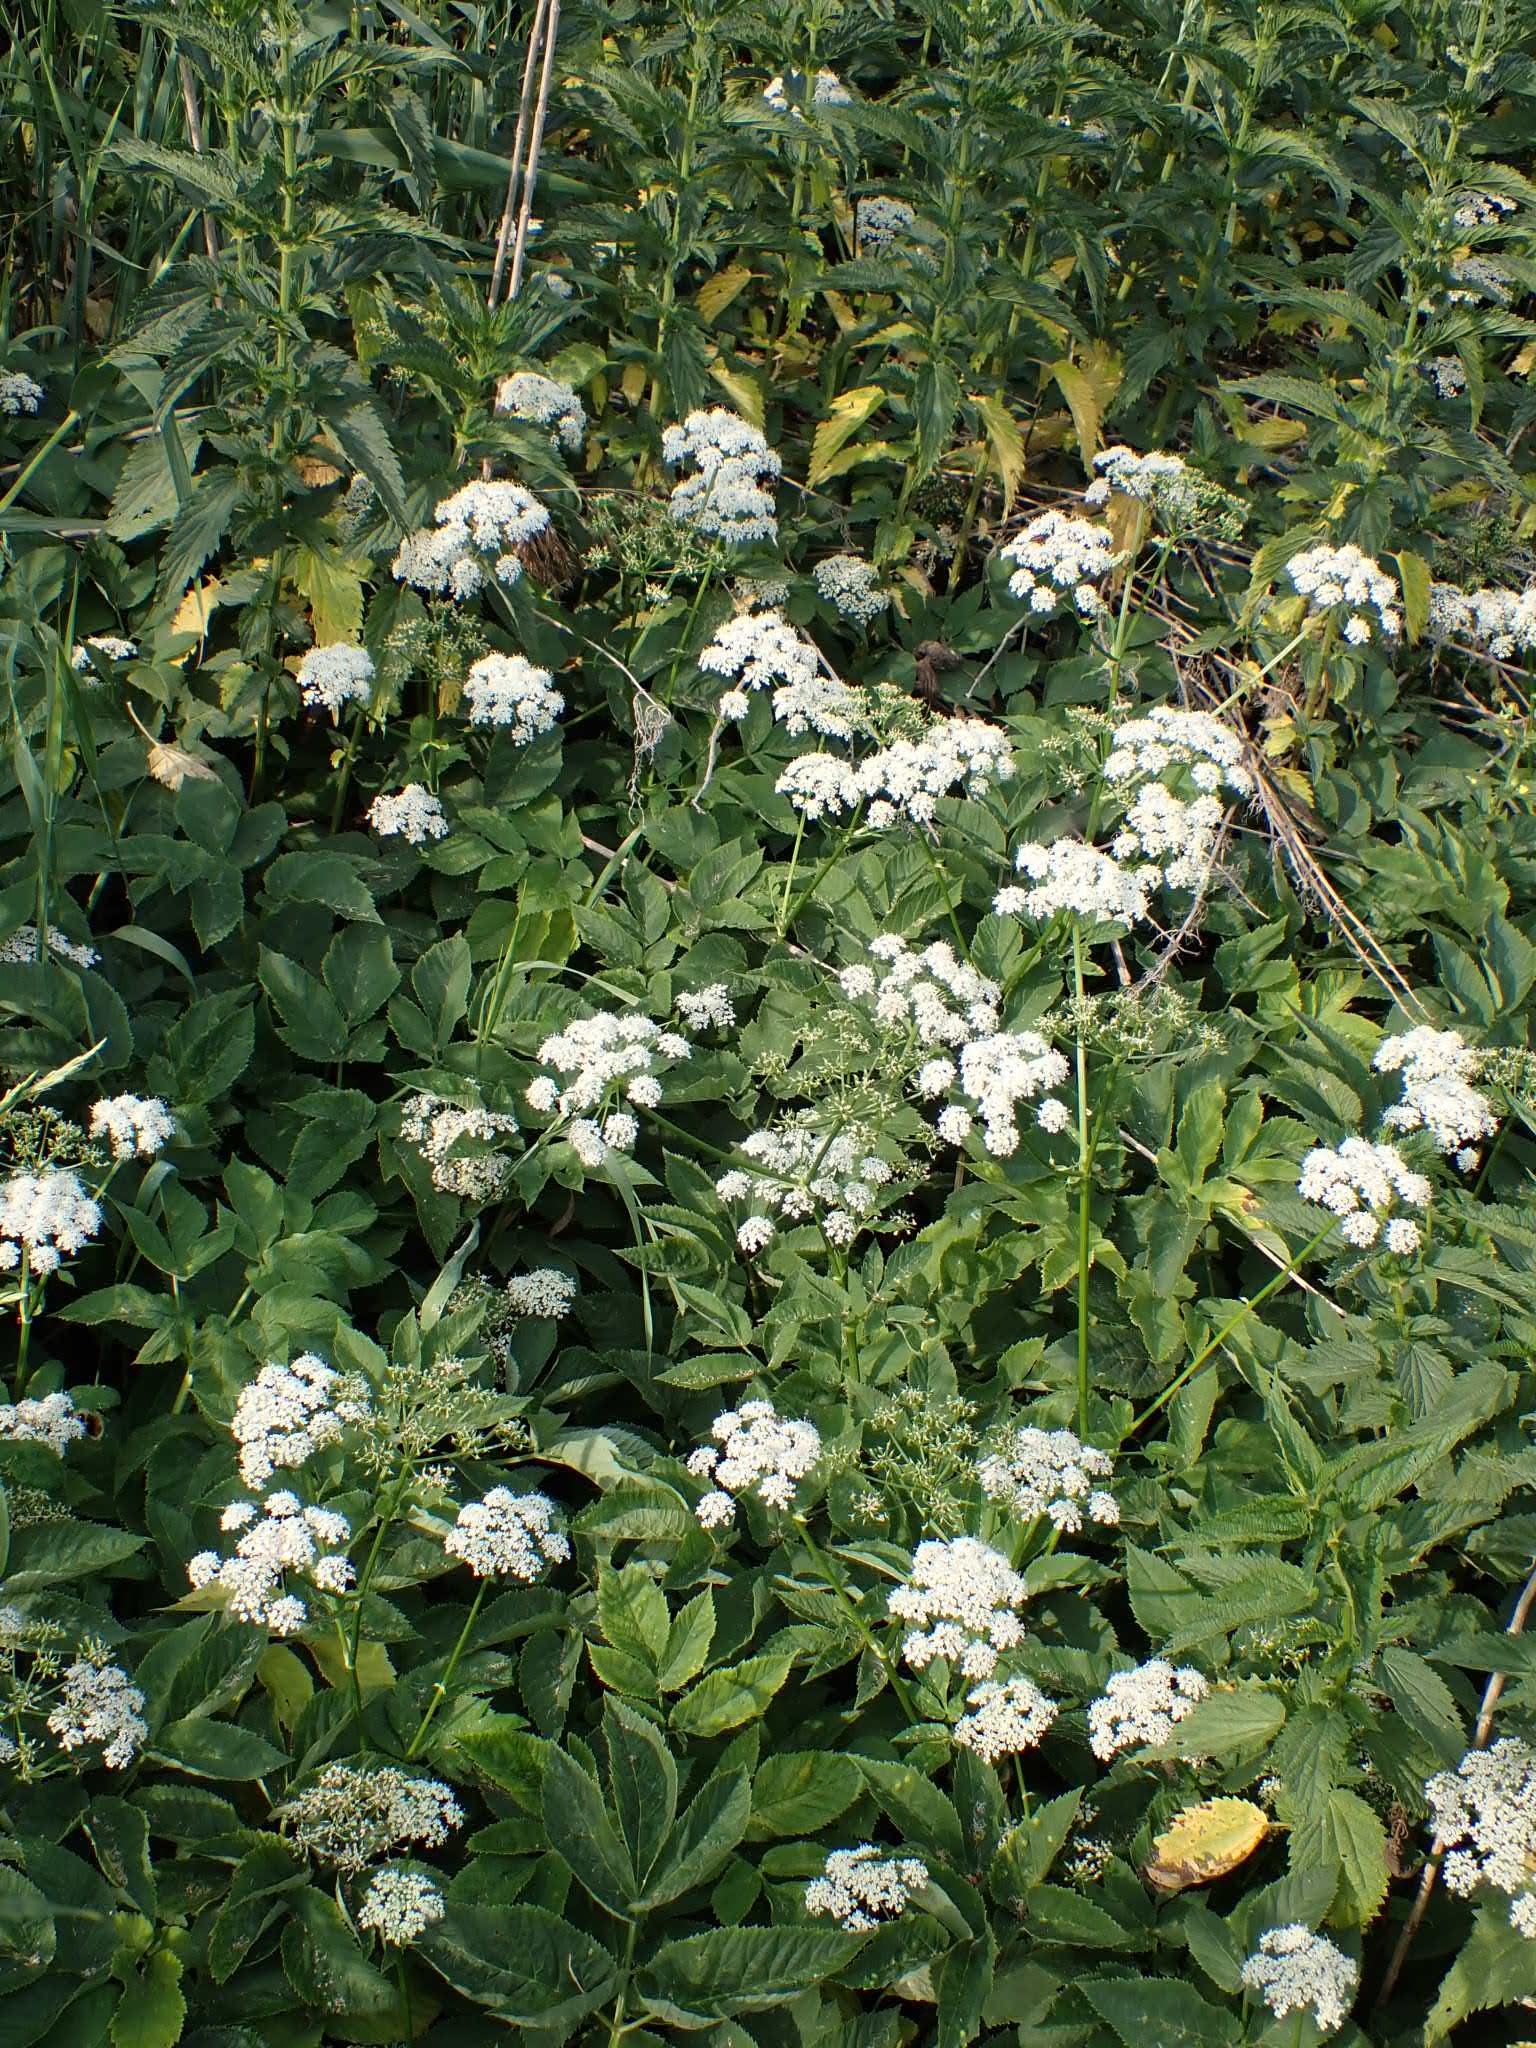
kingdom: Plantae
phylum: Tracheophyta
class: Magnoliopsida
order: Apiales
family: Apiaceae
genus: Aegopodium
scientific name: Aegopodium podagraria
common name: Ground-elder
